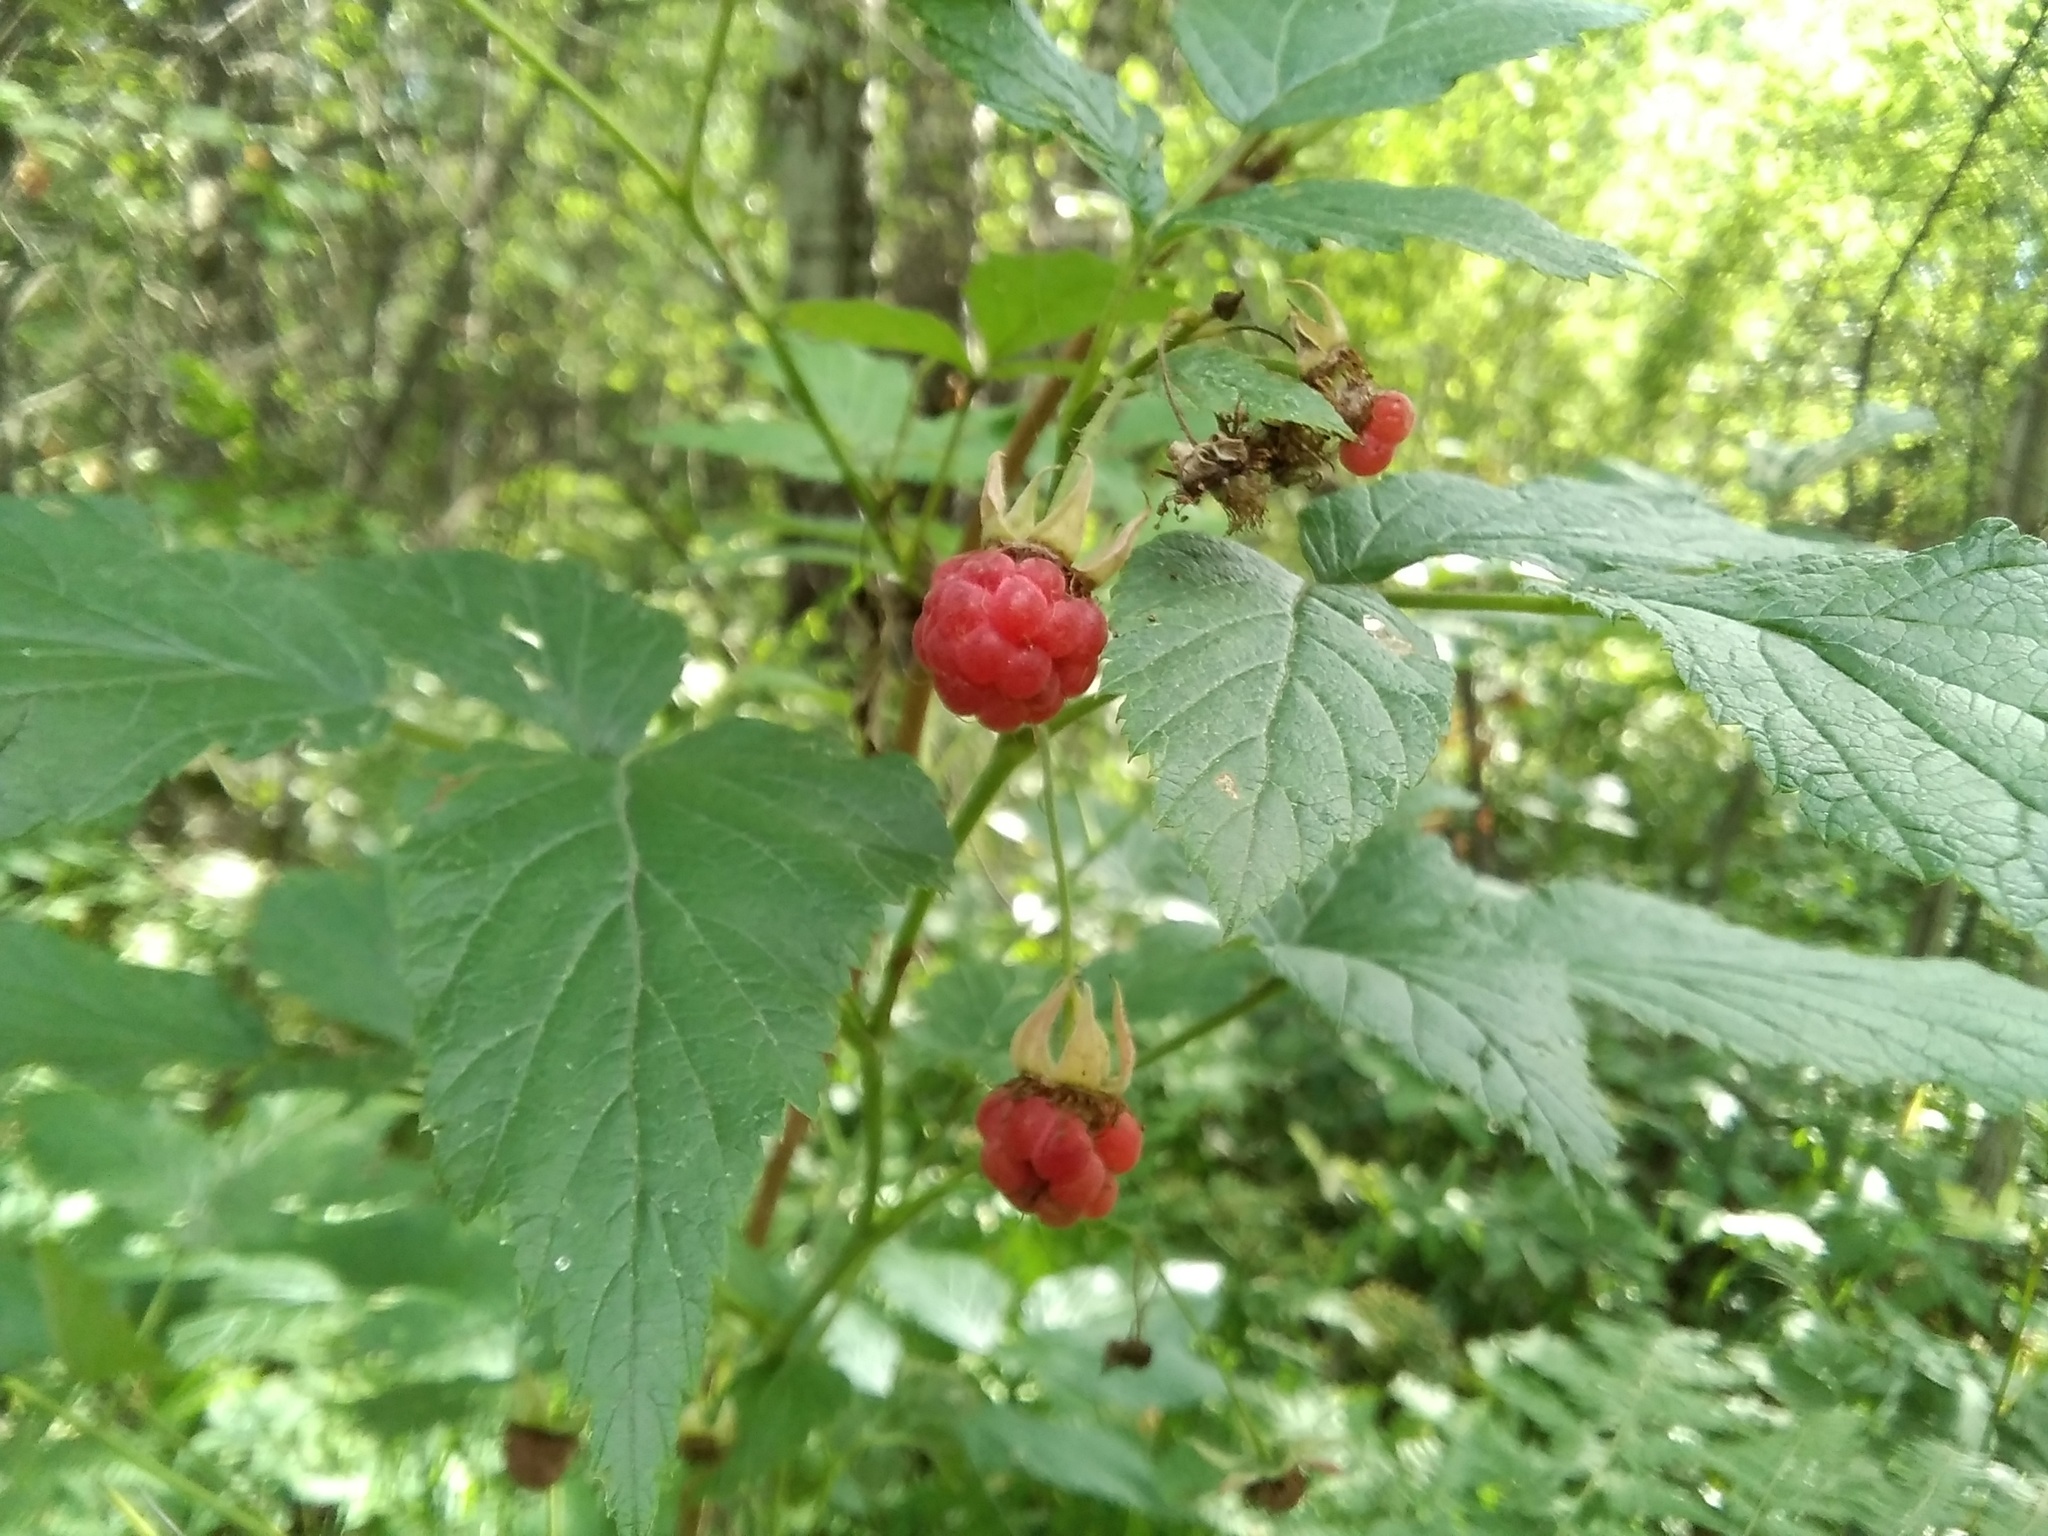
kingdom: Plantae
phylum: Tracheophyta
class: Magnoliopsida
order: Rosales
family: Rosaceae
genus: Rubus
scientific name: Rubus idaeus
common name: Raspberry
